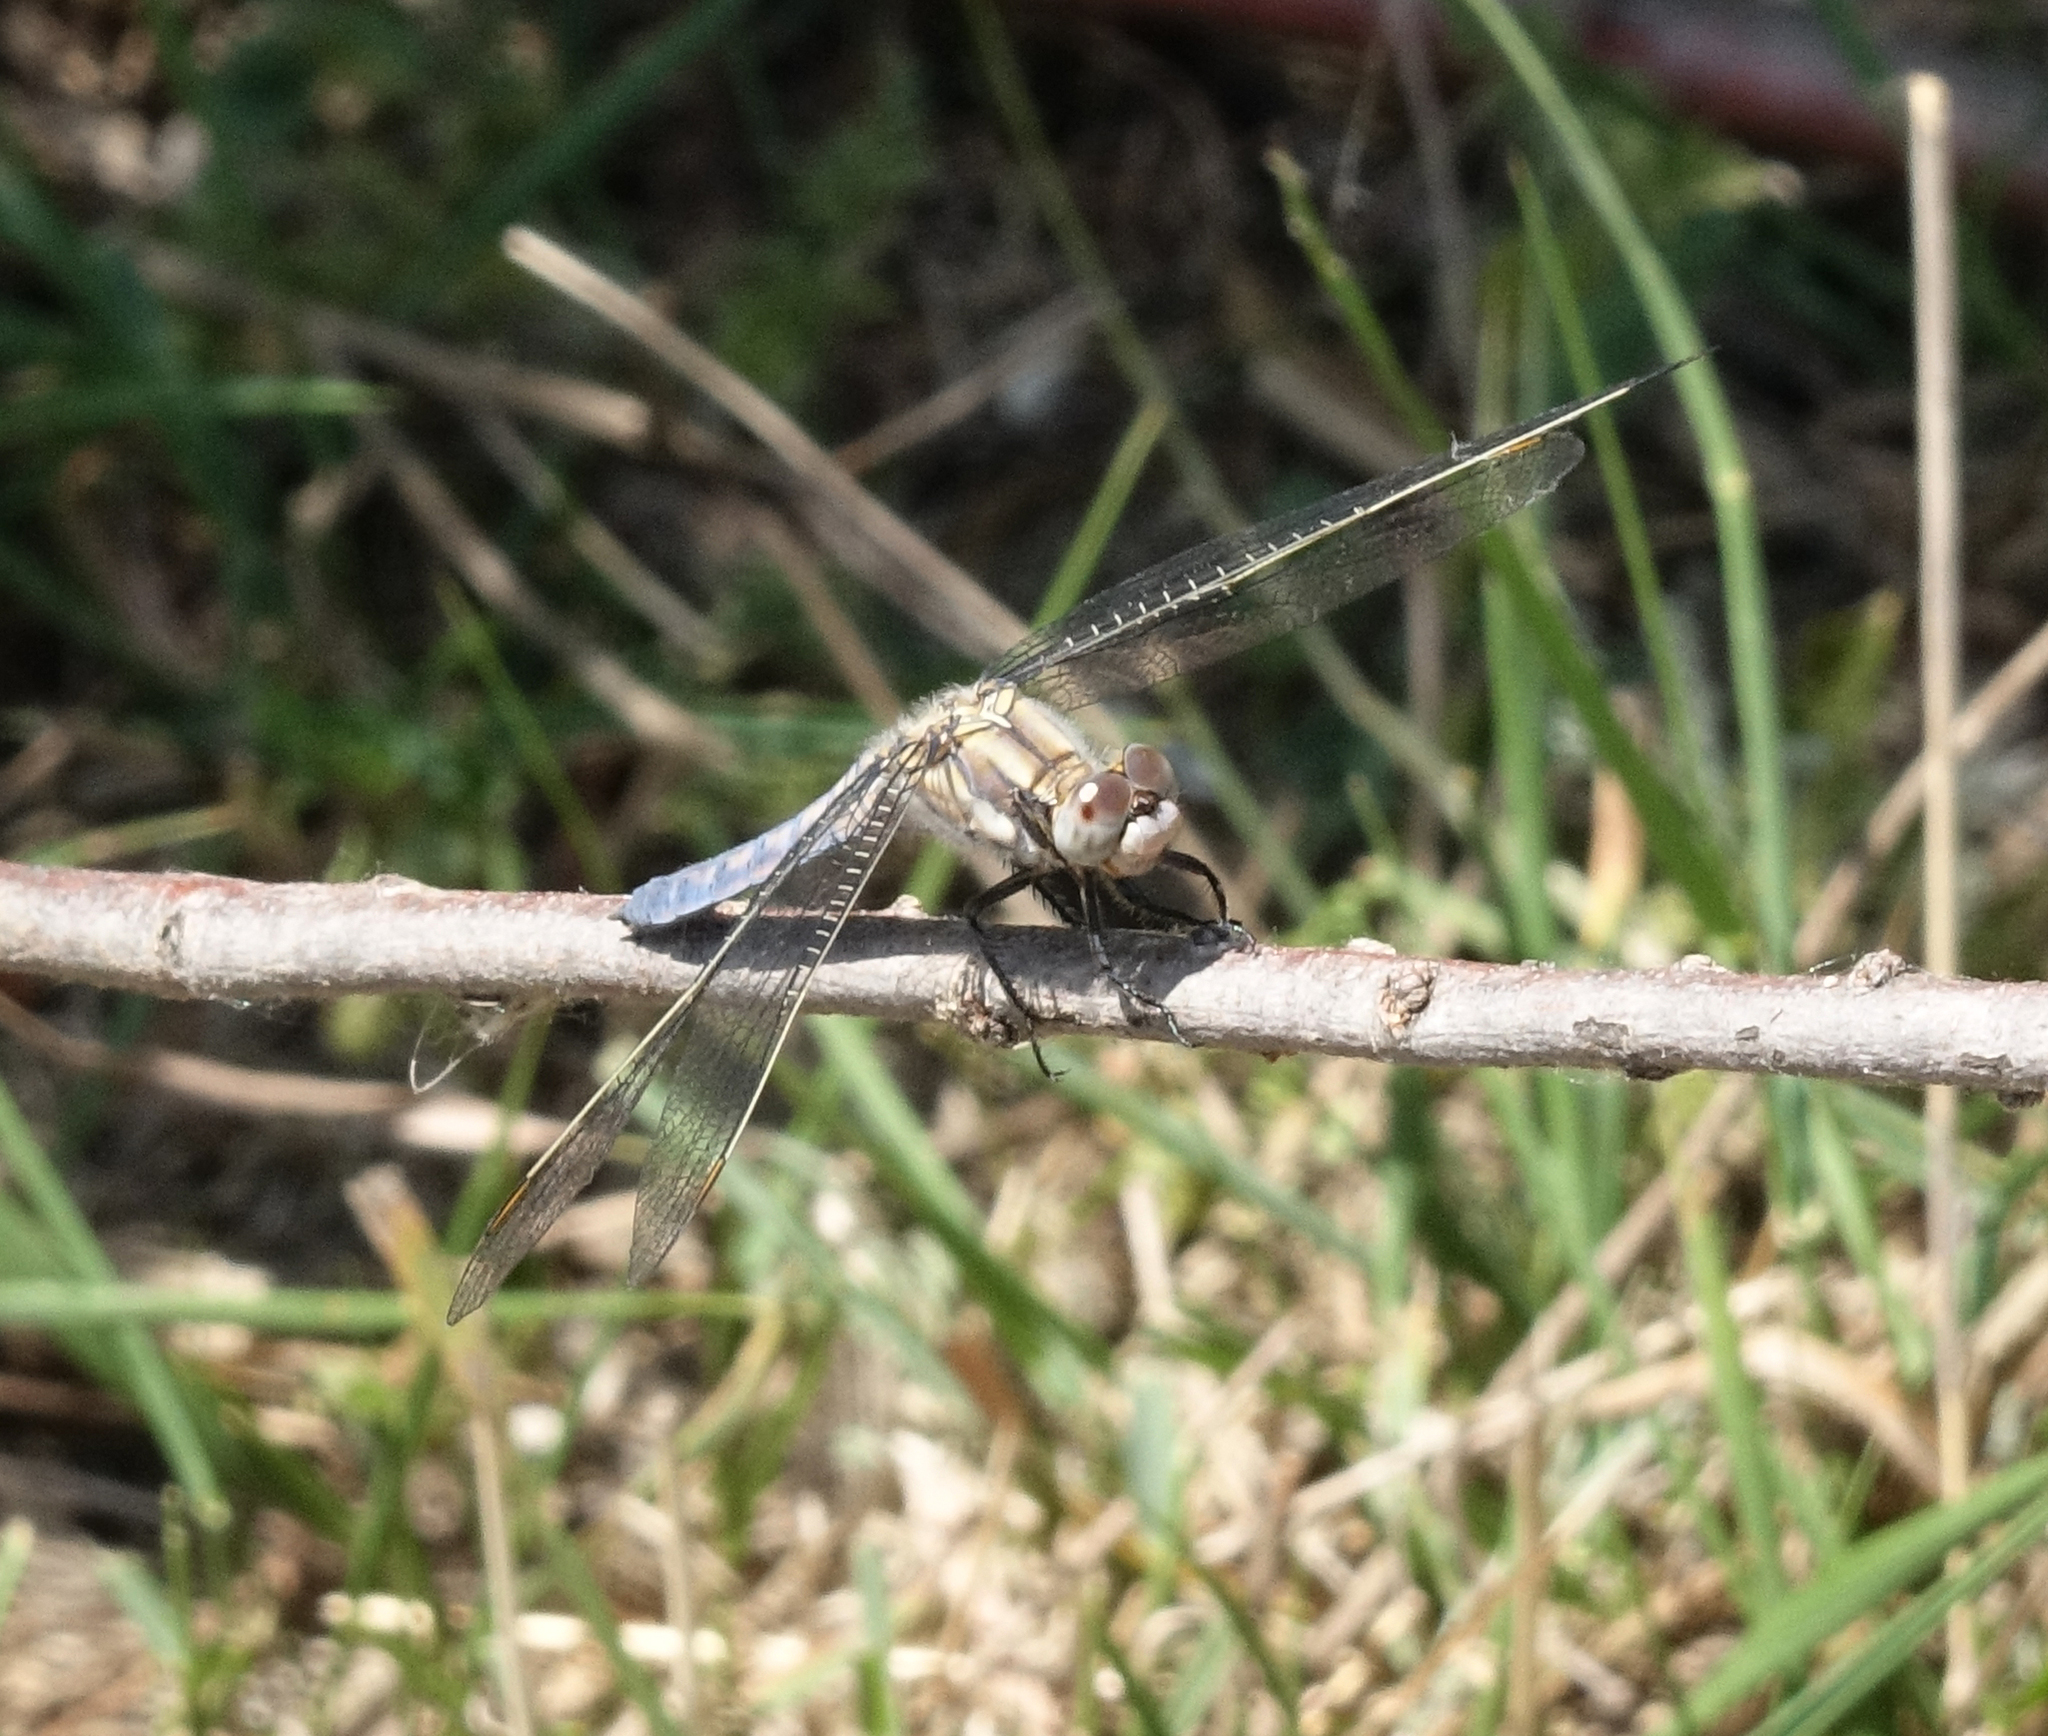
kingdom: Animalia
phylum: Arthropoda
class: Insecta
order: Odonata
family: Libellulidae
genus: Orthetrum
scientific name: Orthetrum brunneum
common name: Southern skimmer
